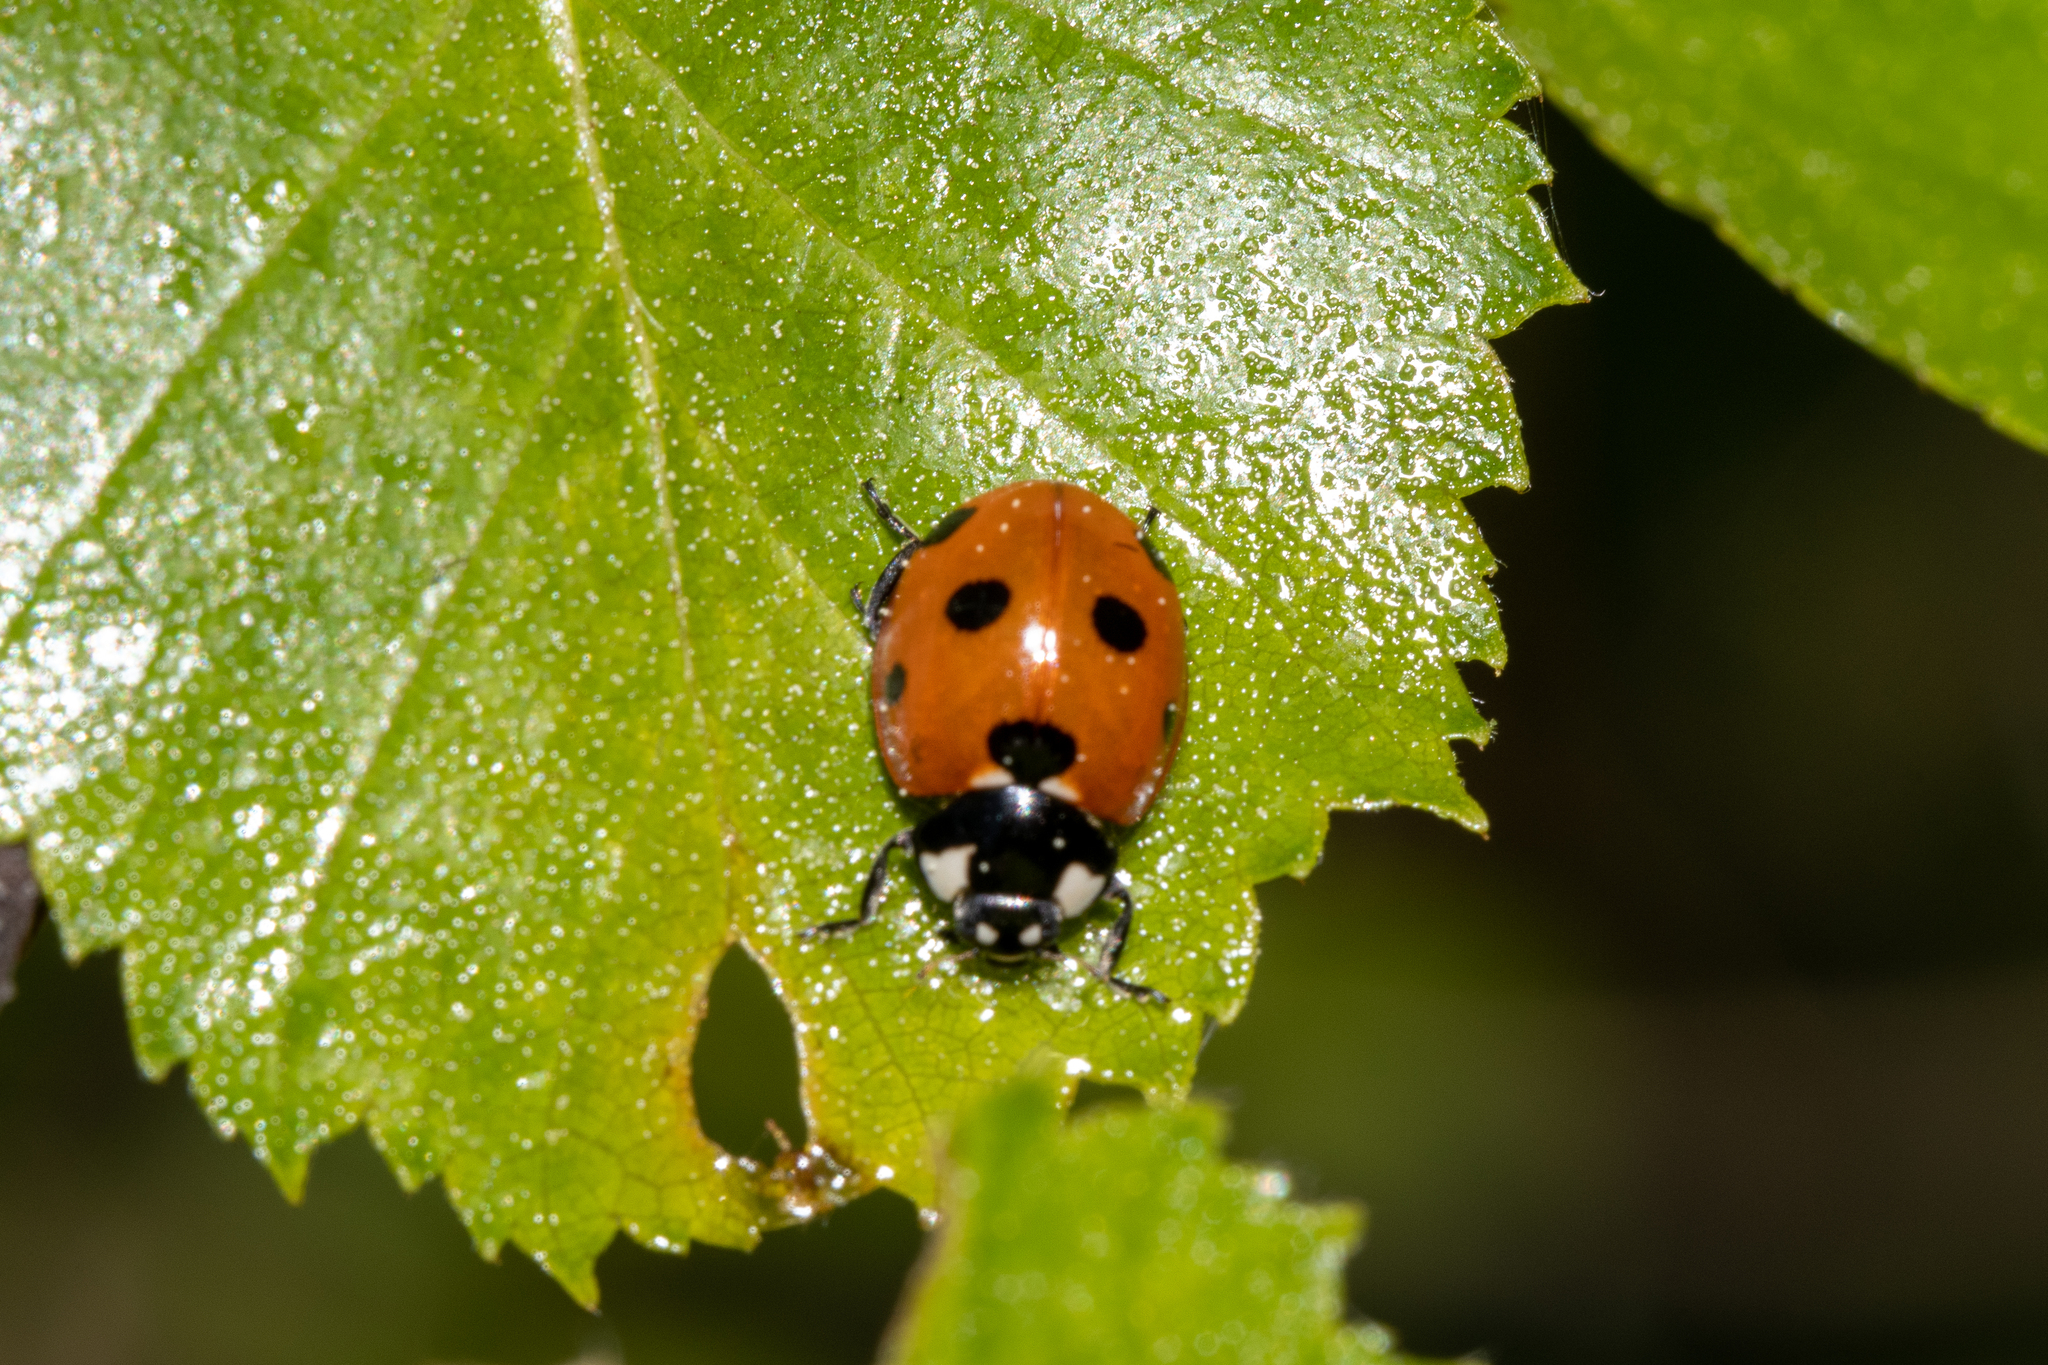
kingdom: Animalia
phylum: Arthropoda
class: Insecta
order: Coleoptera
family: Coccinellidae
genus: Coccinella
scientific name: Coccinella septempunctata
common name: Sevenspotted lady beetle
